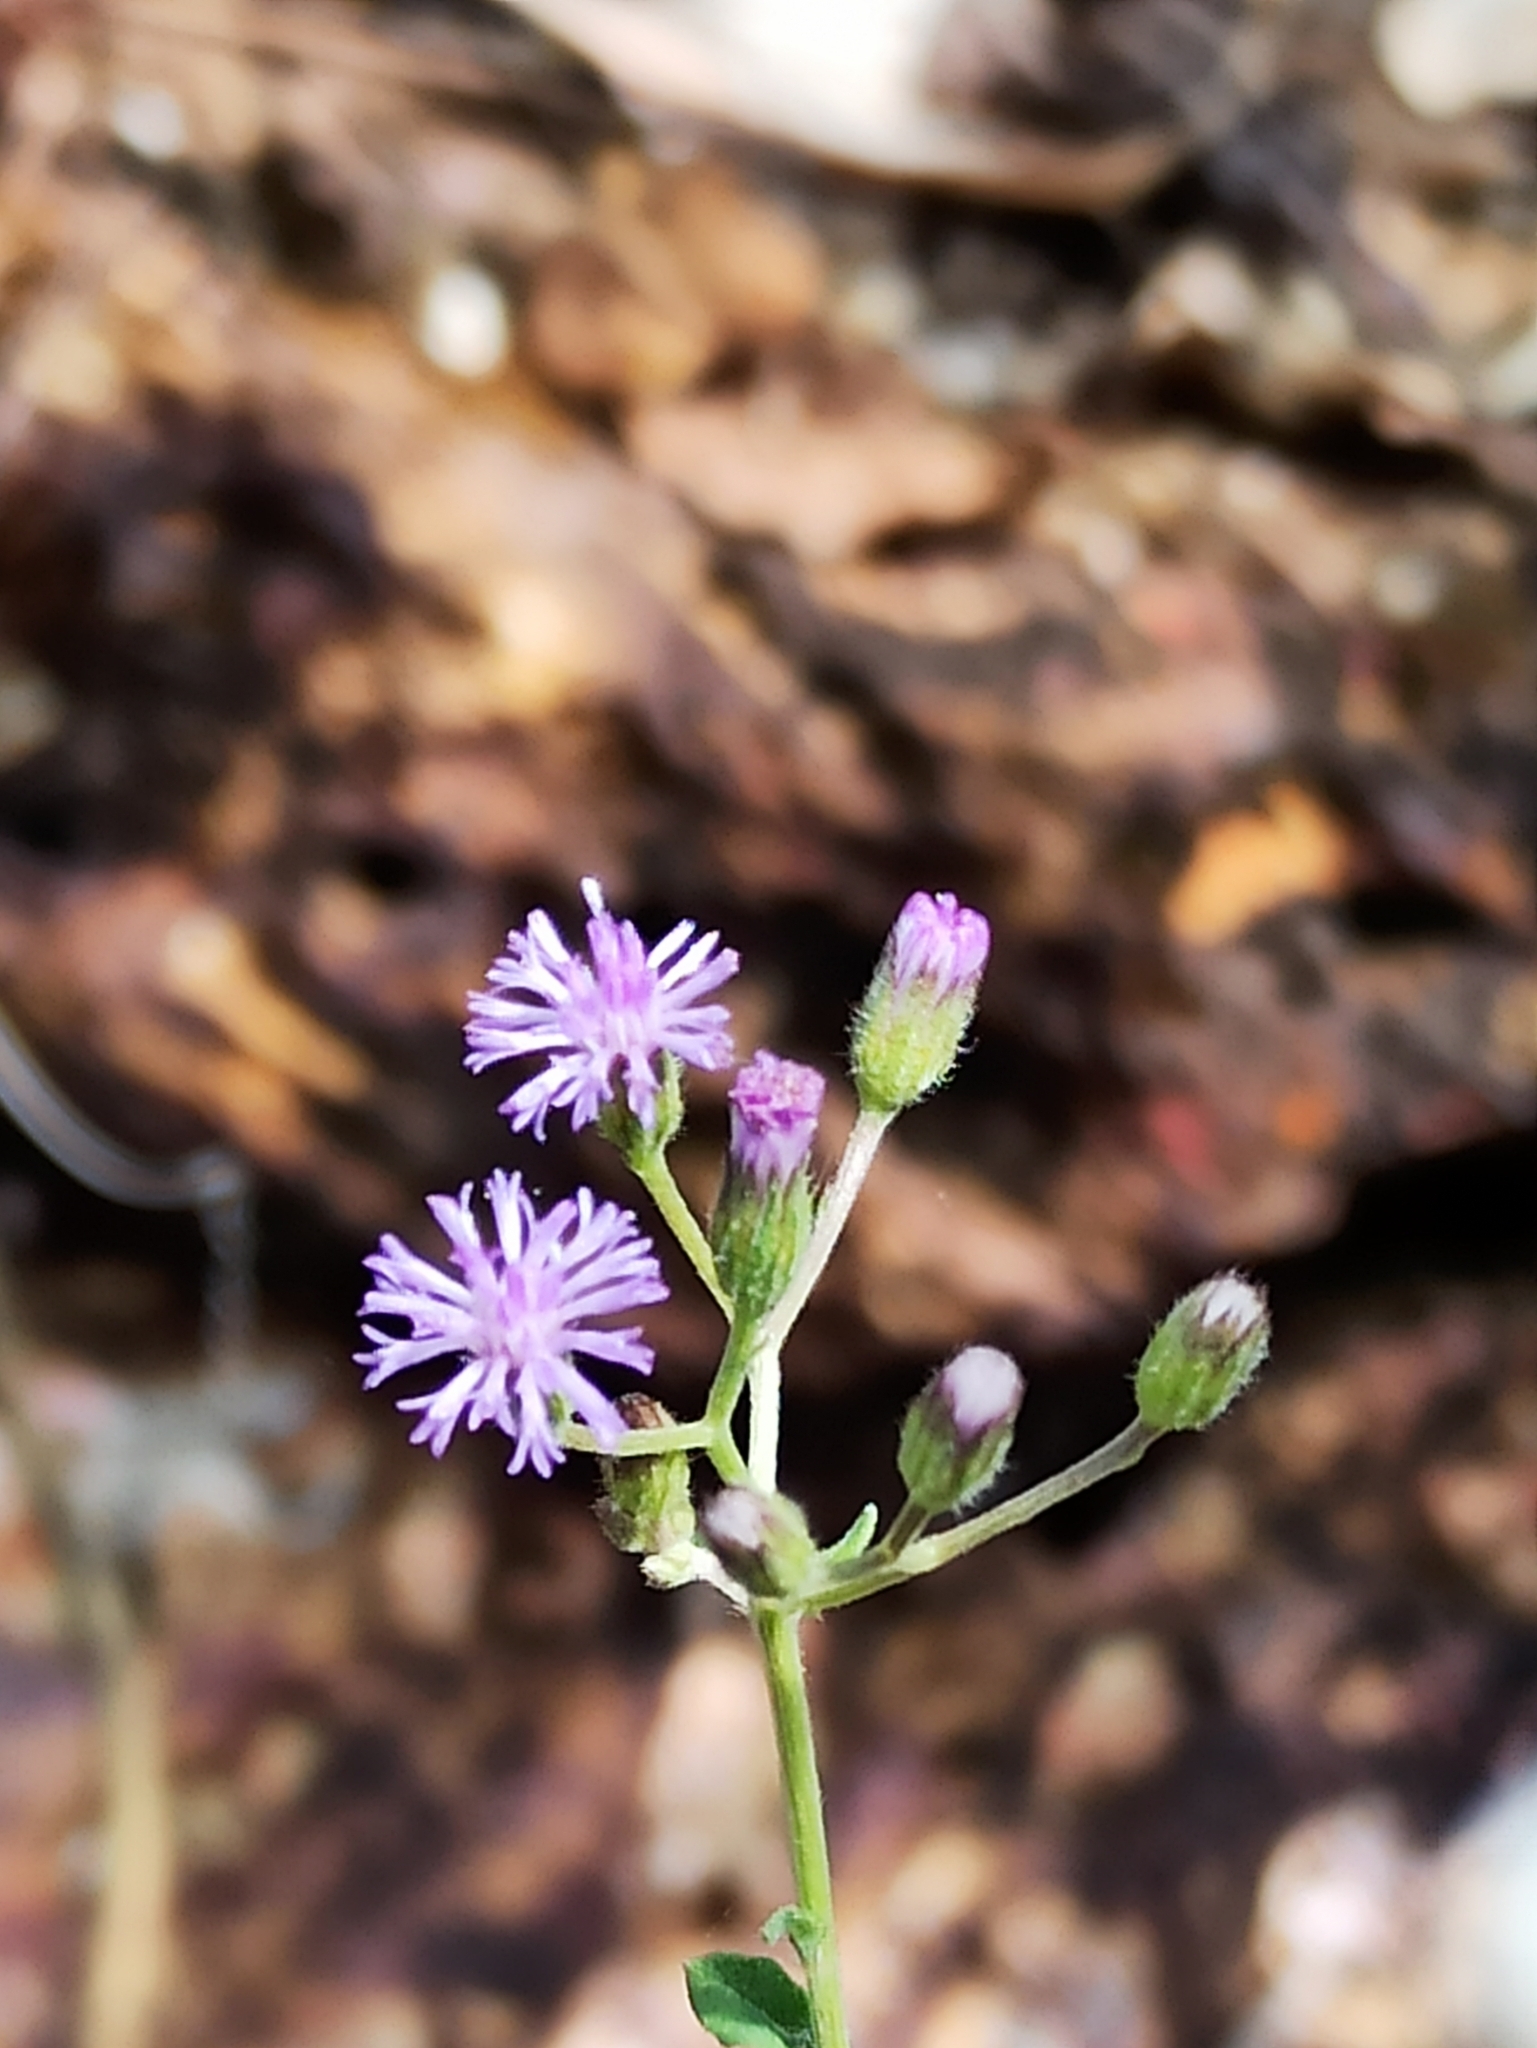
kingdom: Plantae
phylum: Tracheophyta
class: Magnoliopsida
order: Asterales
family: Asteraceae
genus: Cyanthillium
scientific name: Cyanthillium cinereum
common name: Little ironweed
